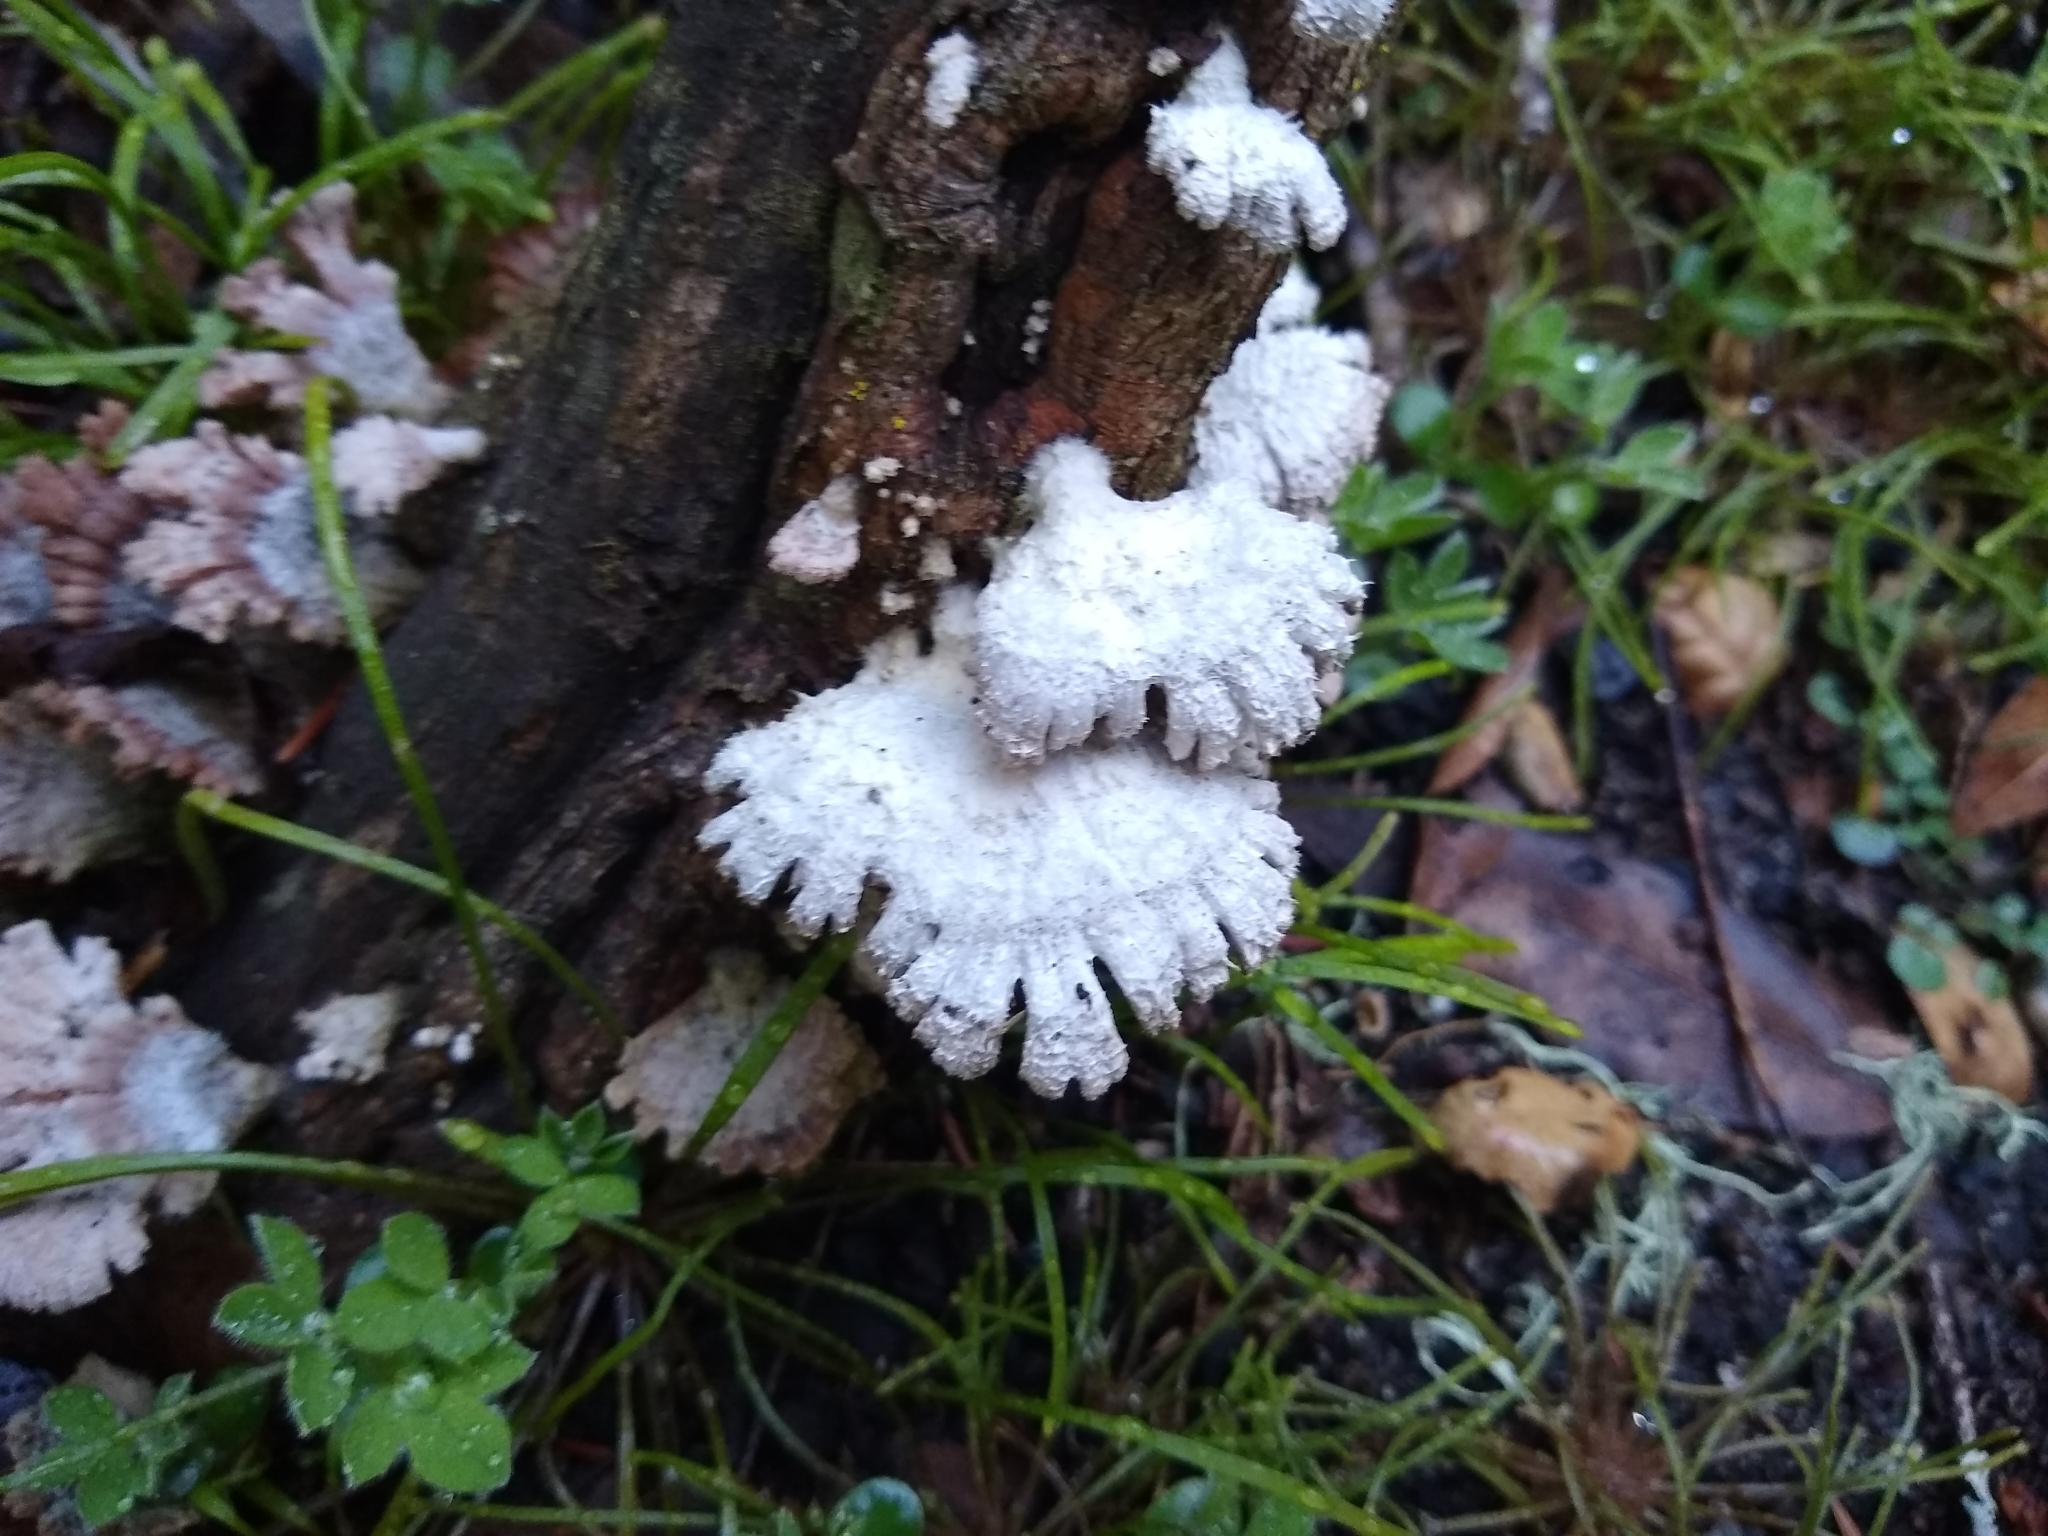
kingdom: Fungi
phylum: Basidiomycota
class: Agaricomycetes
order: Agaricales
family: Schizophyllaceae
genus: Schizophyllum
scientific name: Schizophyllum commune
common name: Common porecrust
